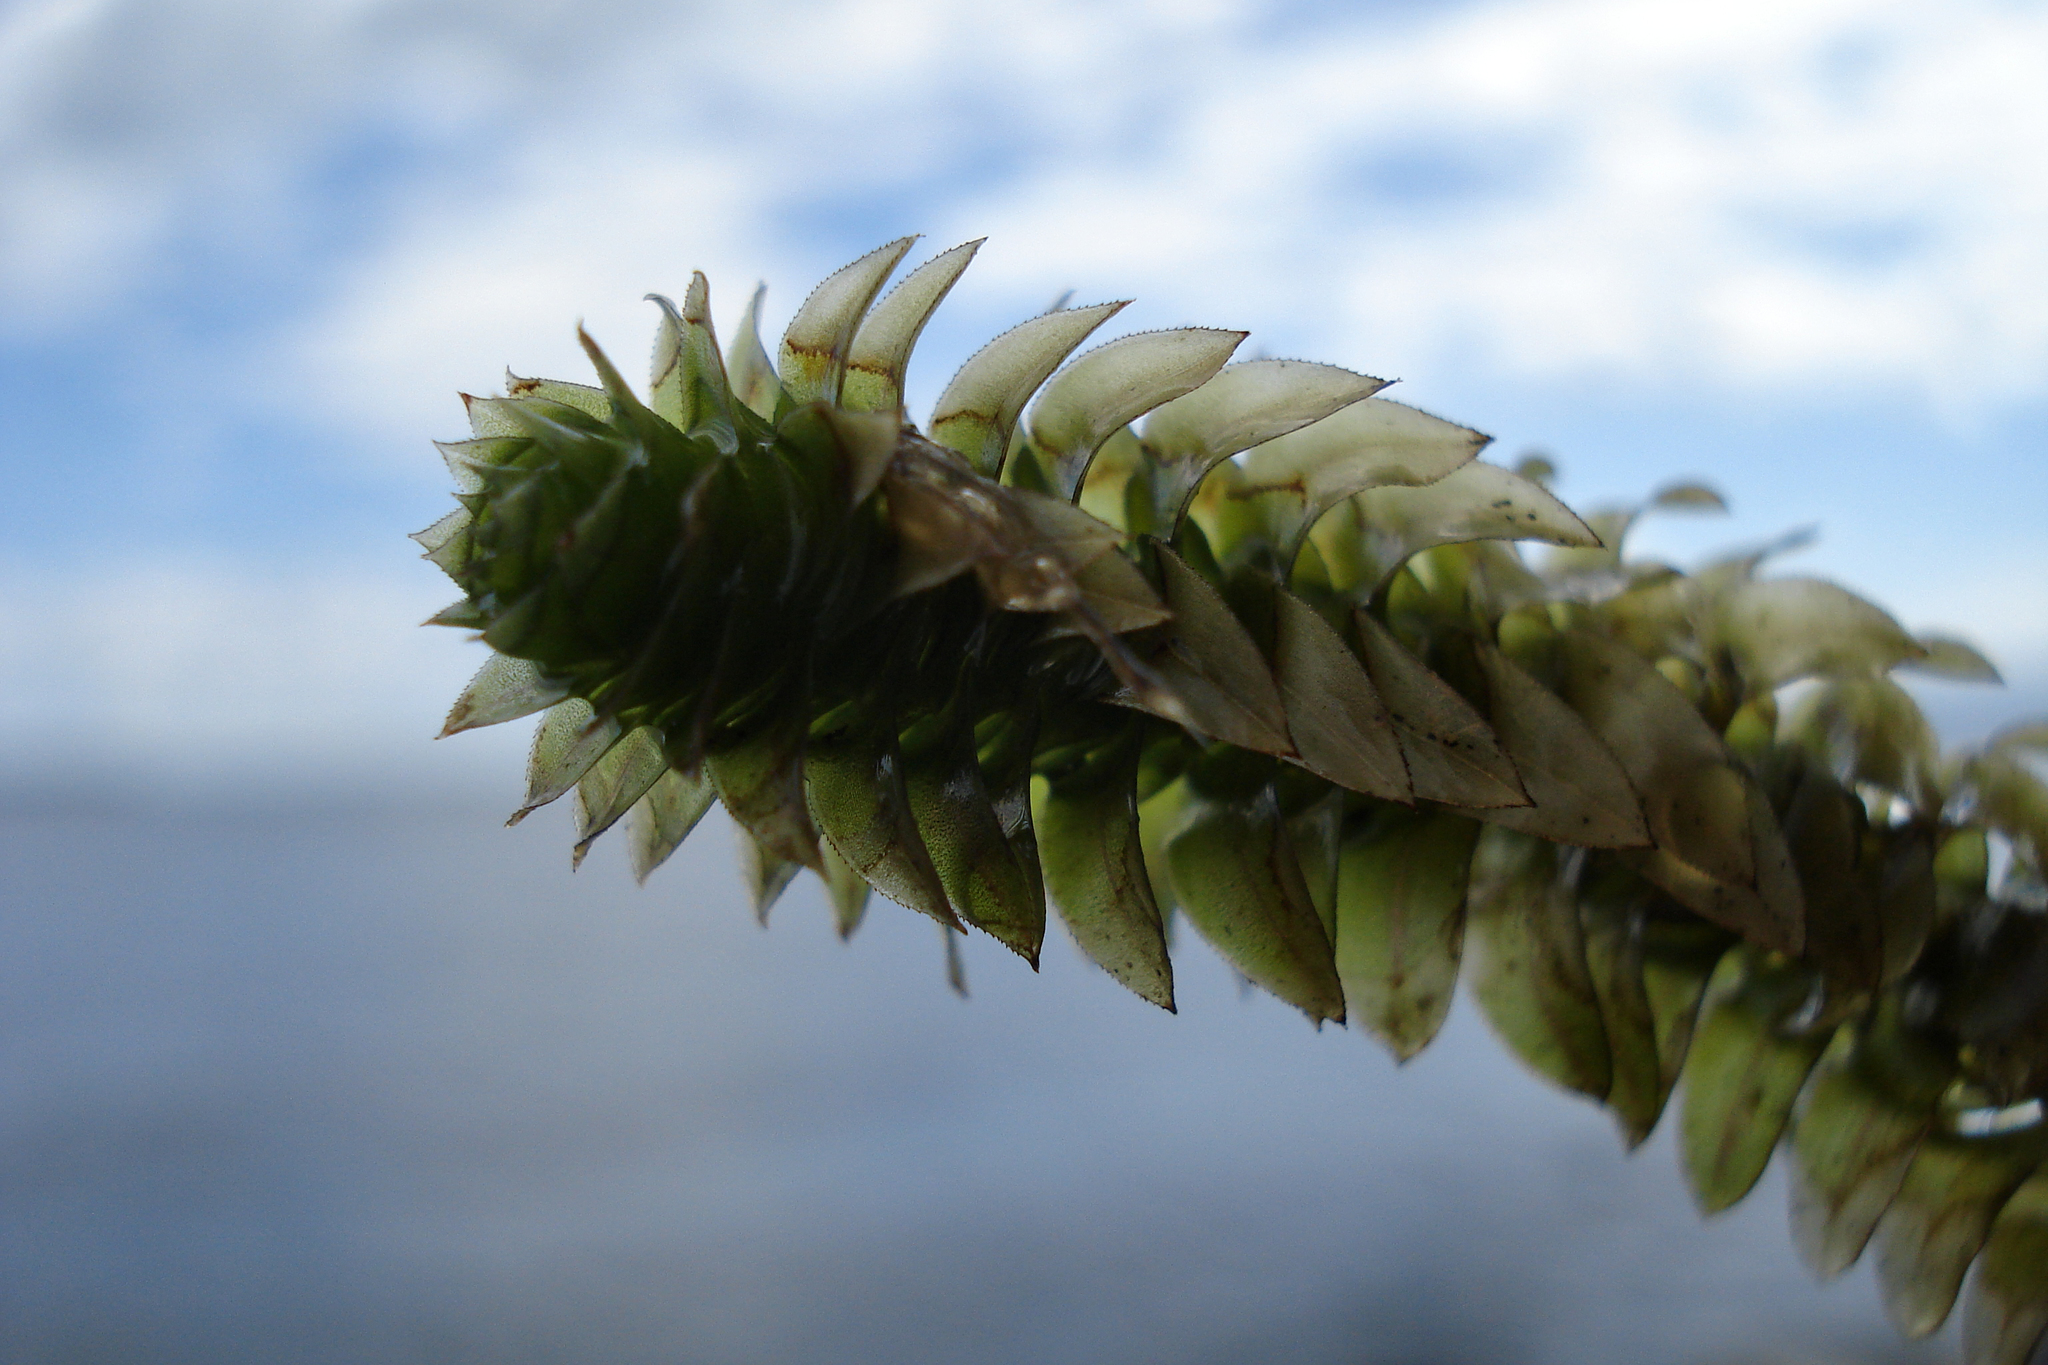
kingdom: Plantae
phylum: Tracheophyta
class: Liliopsida
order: Alismatales
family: Hydrocharitaceae
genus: Elodea
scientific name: Elodea canadensis
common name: Canadian waterweed
